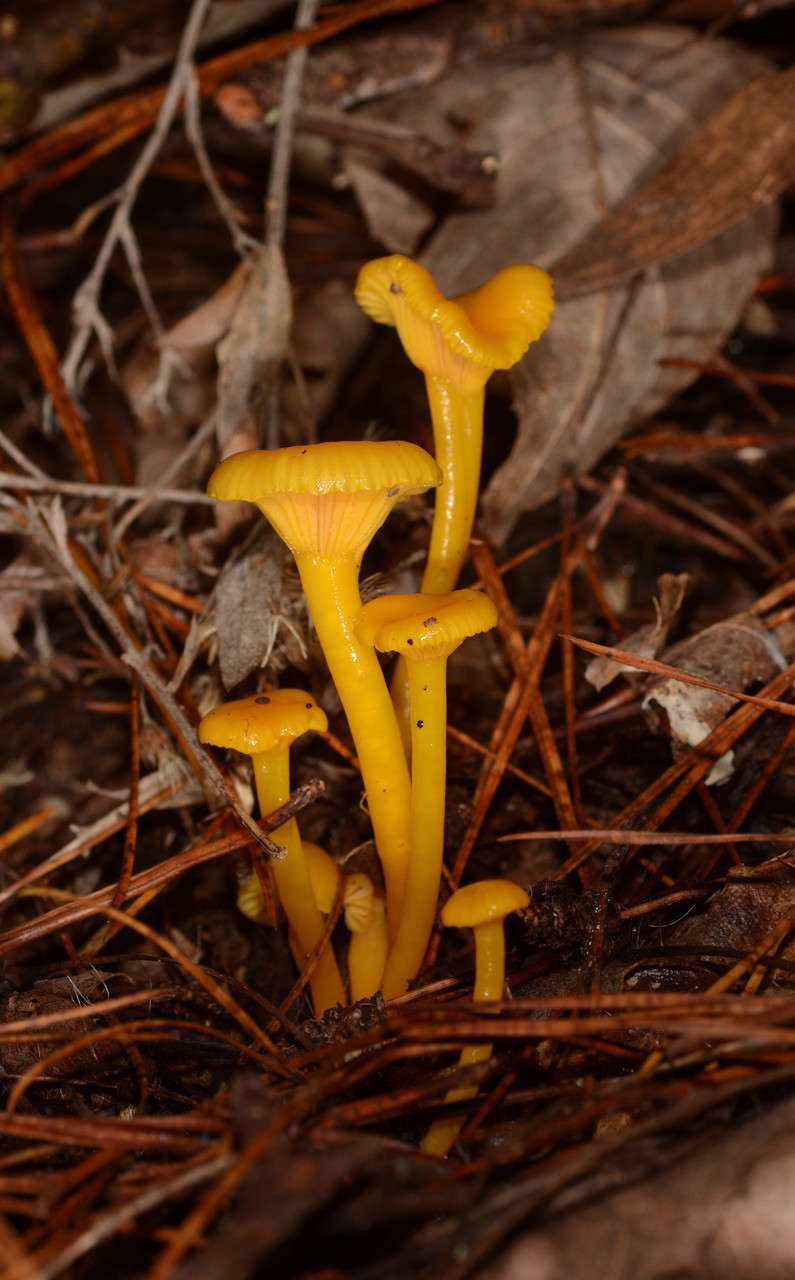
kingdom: Fungi
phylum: Basidiomycota
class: Agaricomycetes
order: Agaricales
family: Hygrophoraceae
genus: Gloioxanthomyces
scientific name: Gloioxanthomyces
